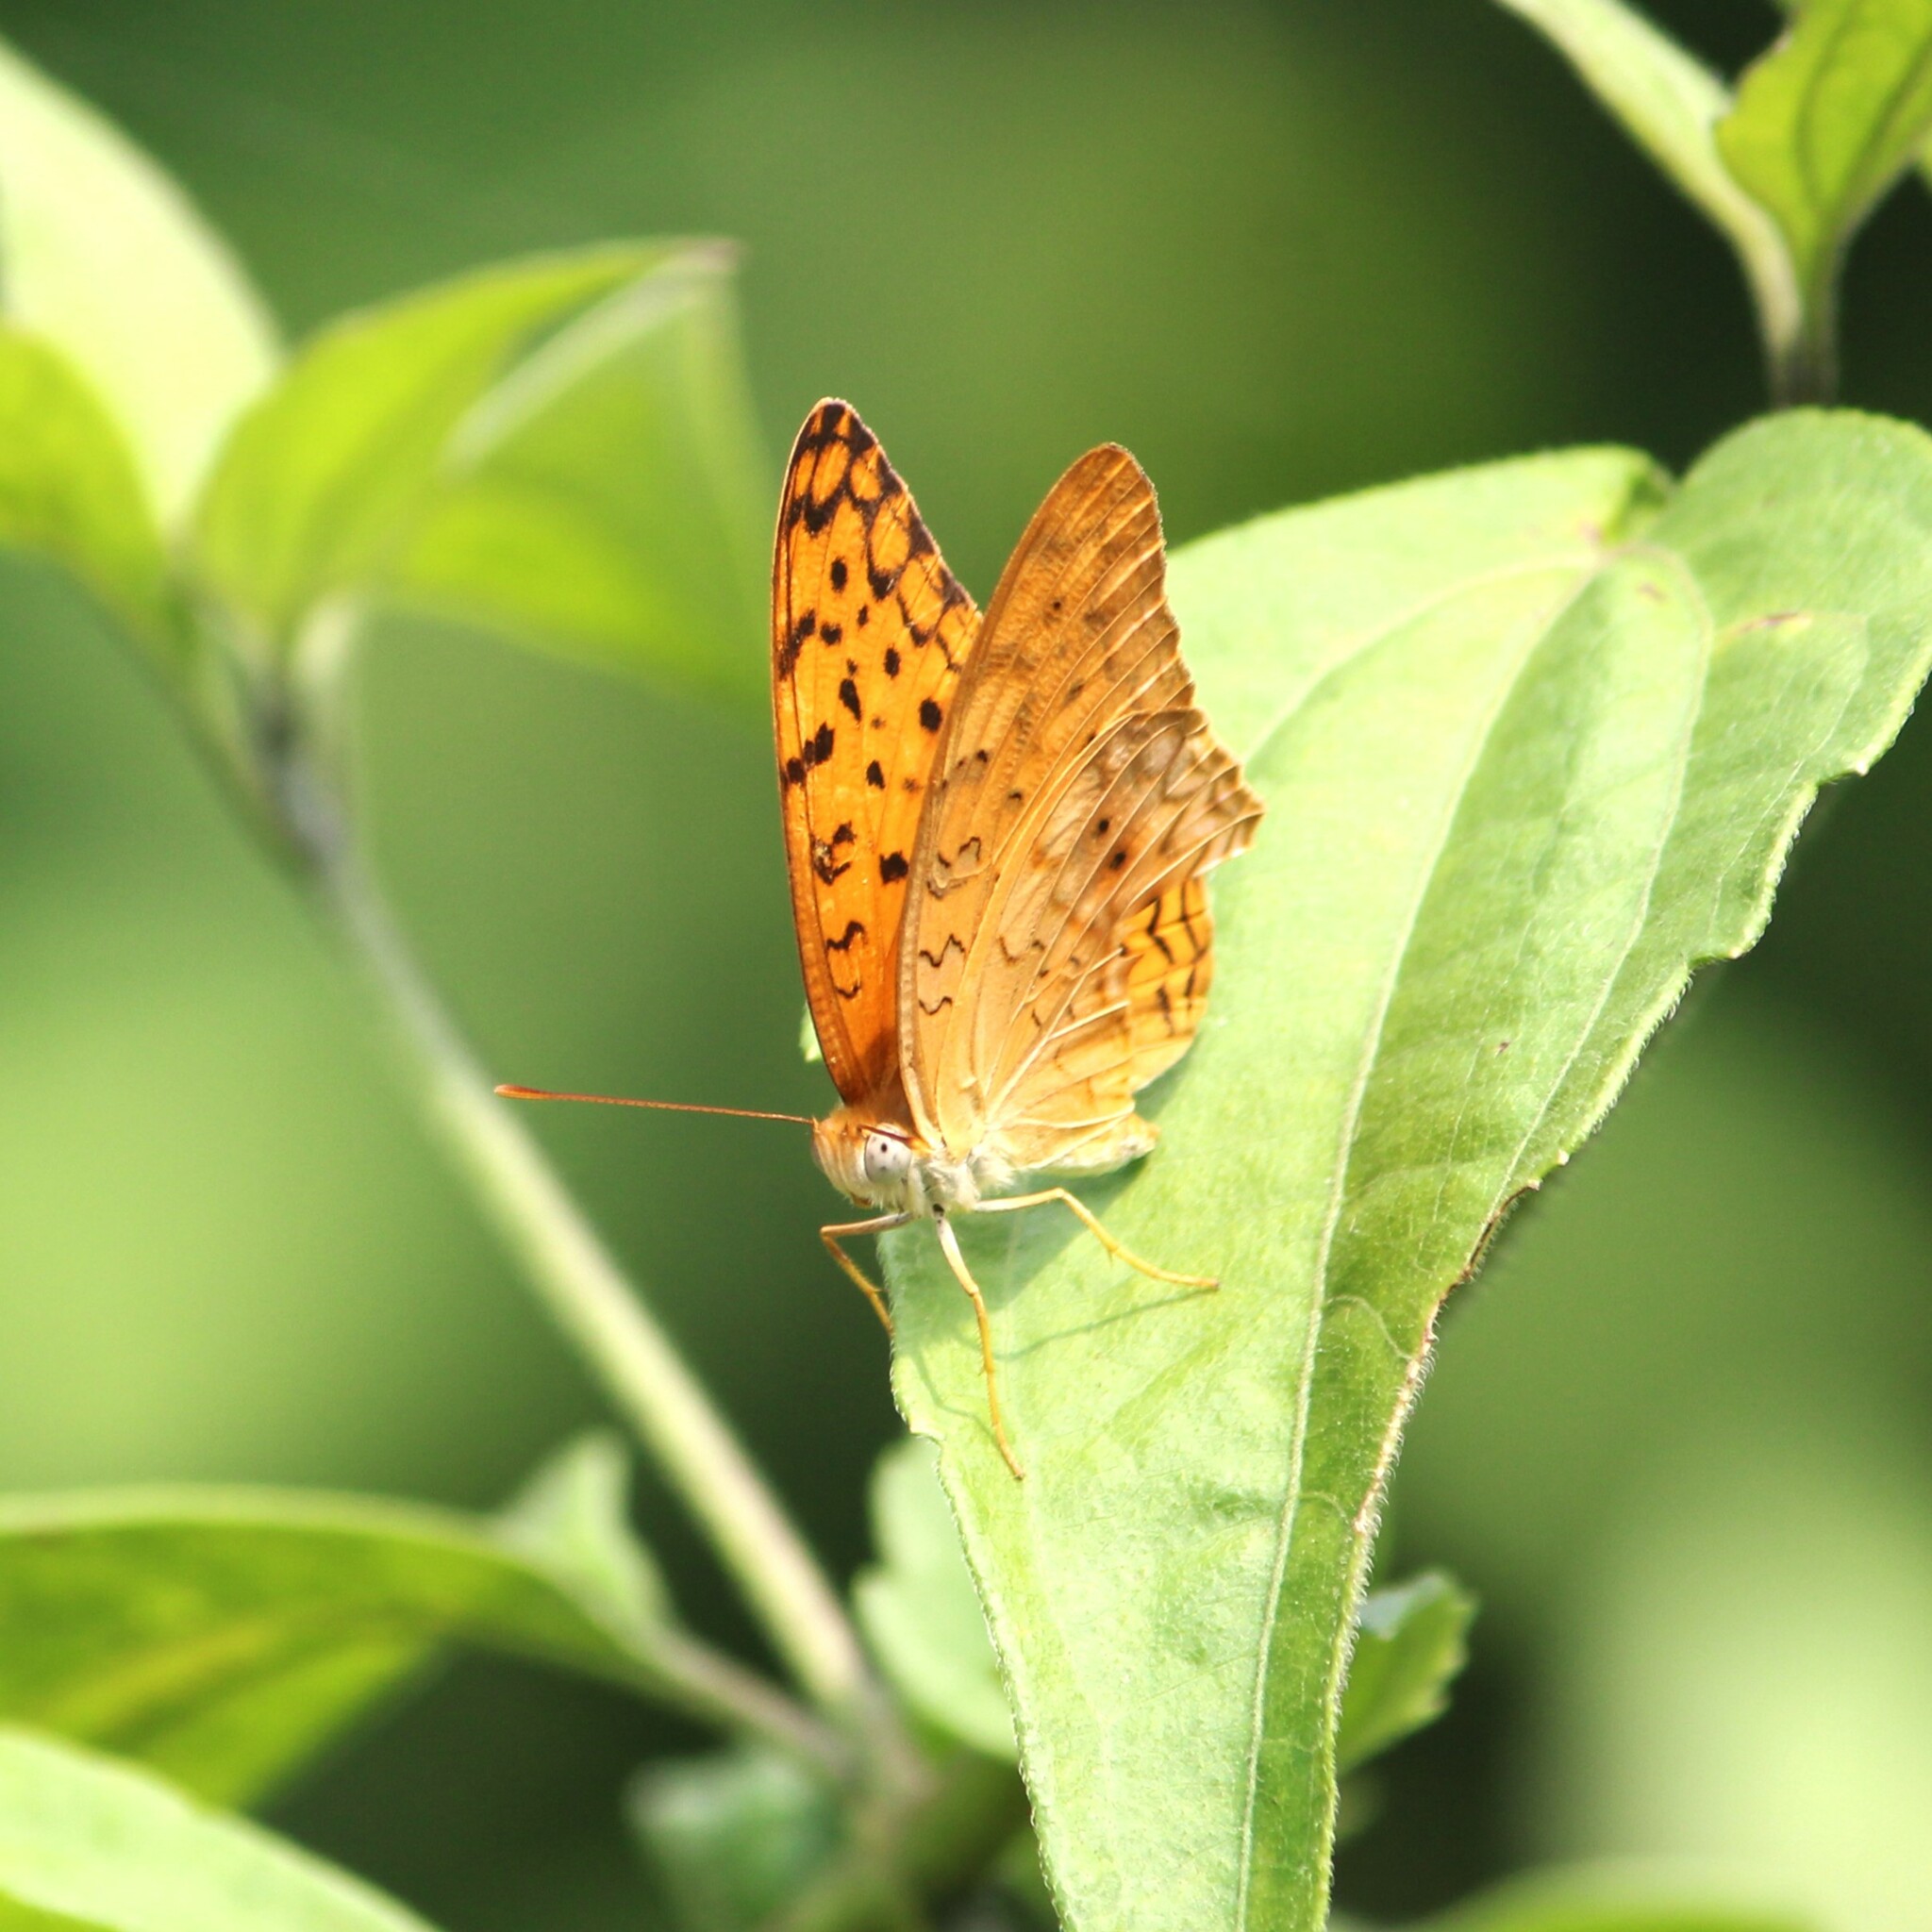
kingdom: Animalia
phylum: Arthropoda
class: Insecta
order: Lepidoptera
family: Nymphalidae
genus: Phalanta
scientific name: Phalanta phalantha
